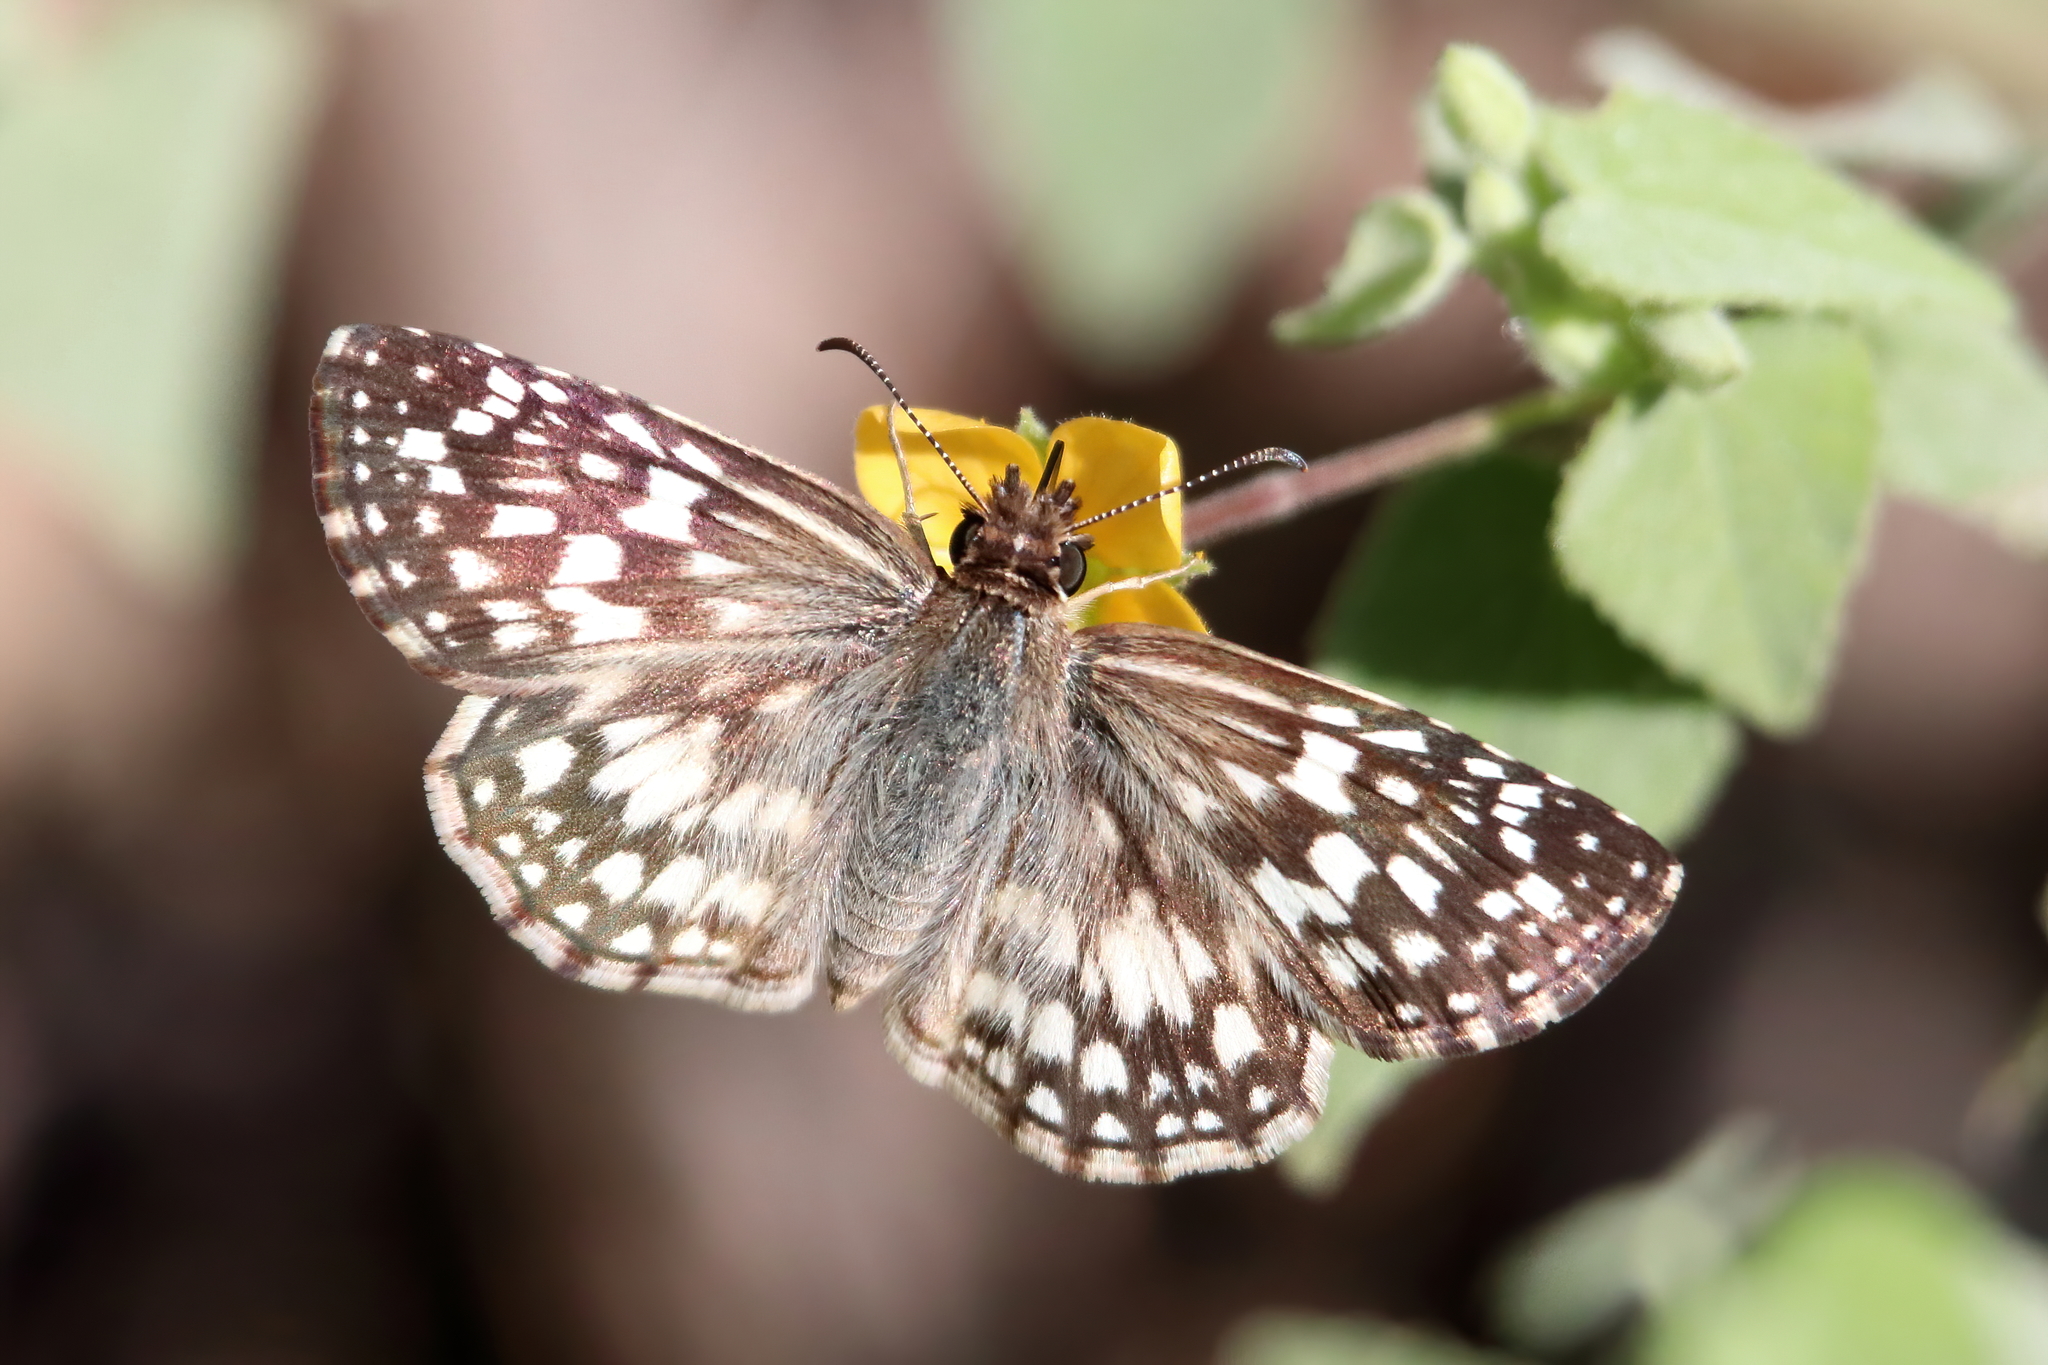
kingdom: Animalia
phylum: Arthropoda
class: Insecta
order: Lepidoptera
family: Hesperiidae
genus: Pyrgus
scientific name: Pyrgus oileus
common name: Tropical checkered-skipper
